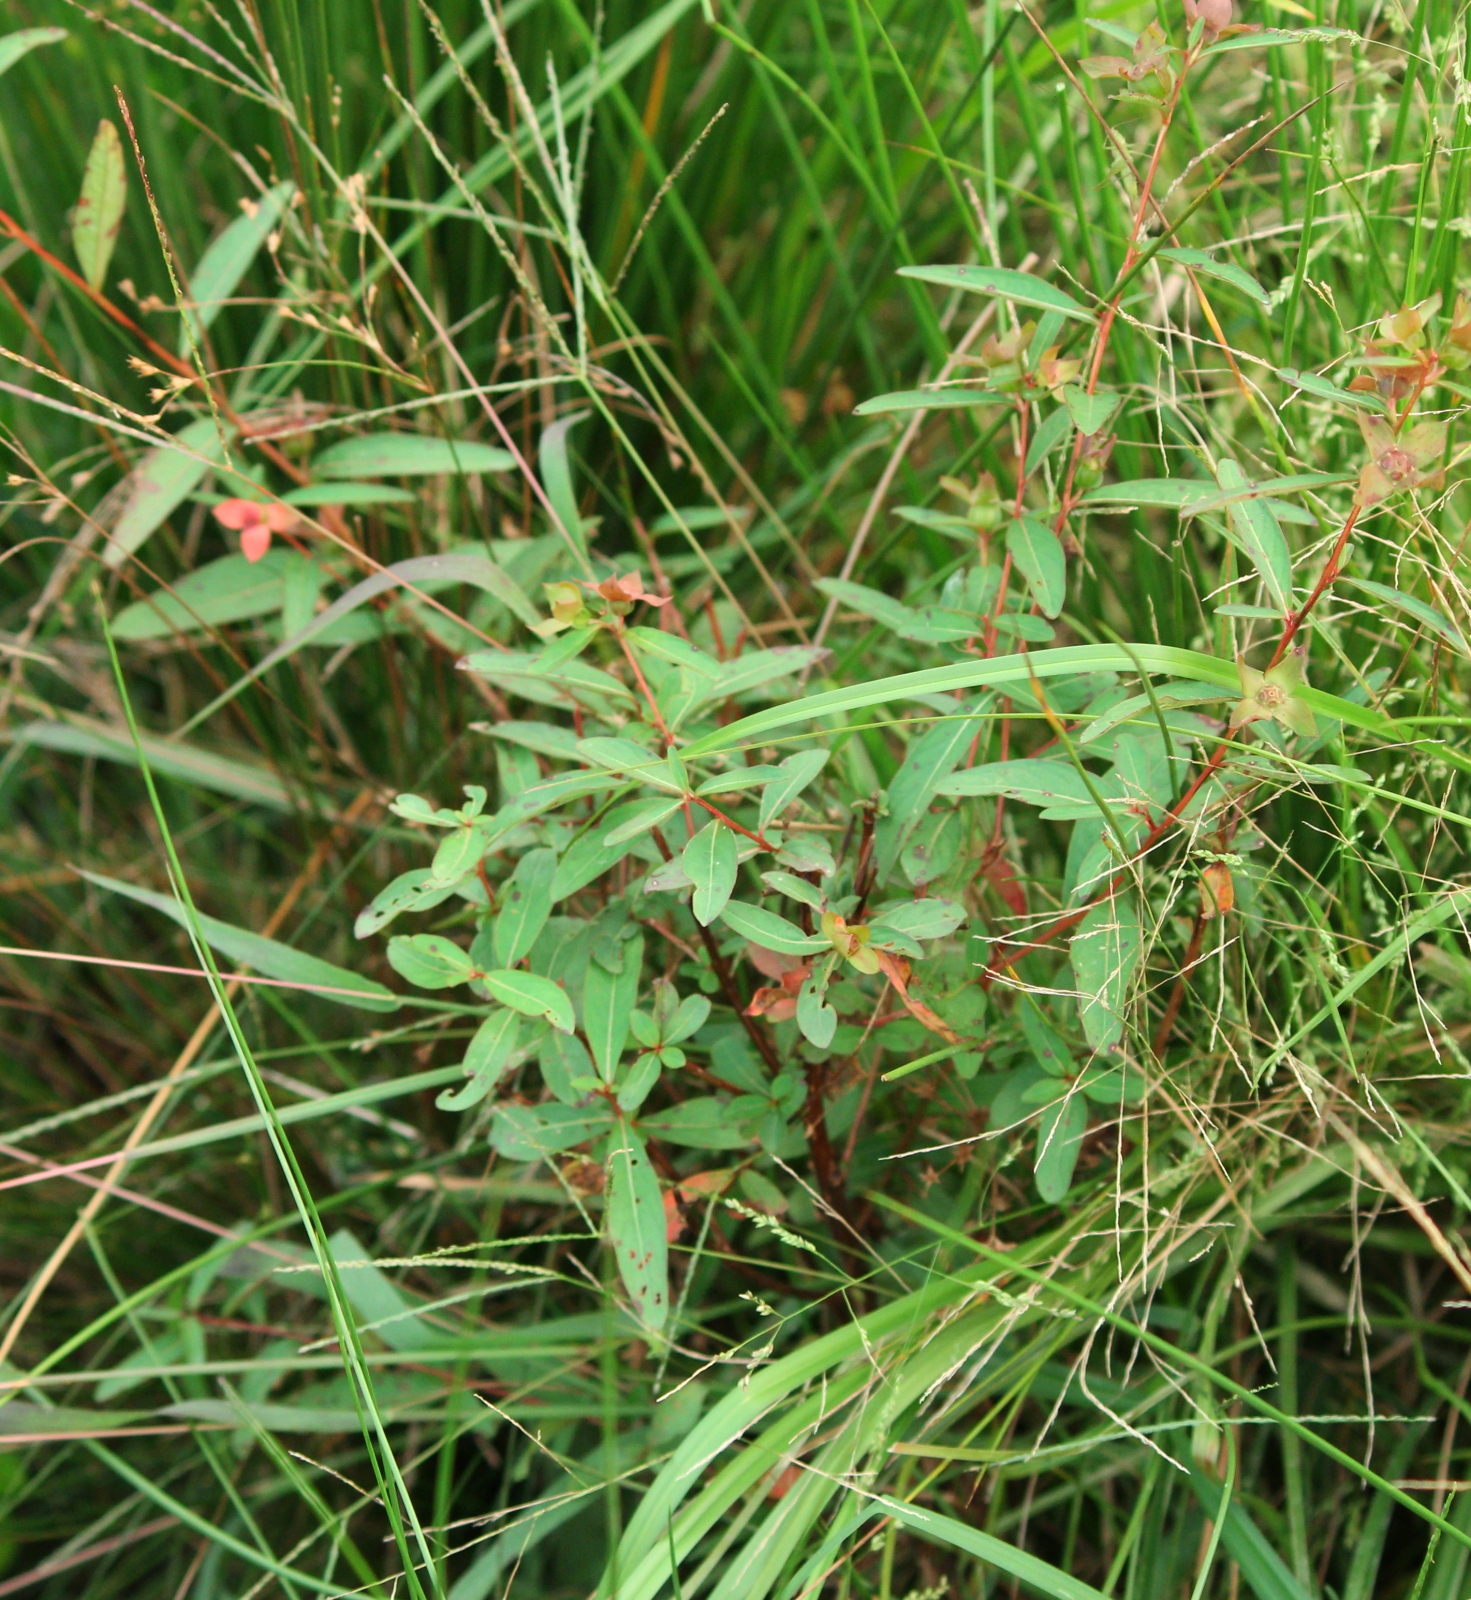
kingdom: Plantae
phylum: Tracheophyta
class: Magnoliopsida
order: Myrtales
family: Onagraceae
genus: Ludwigia
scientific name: Ludwigia alternifolia
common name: Rattlebox
